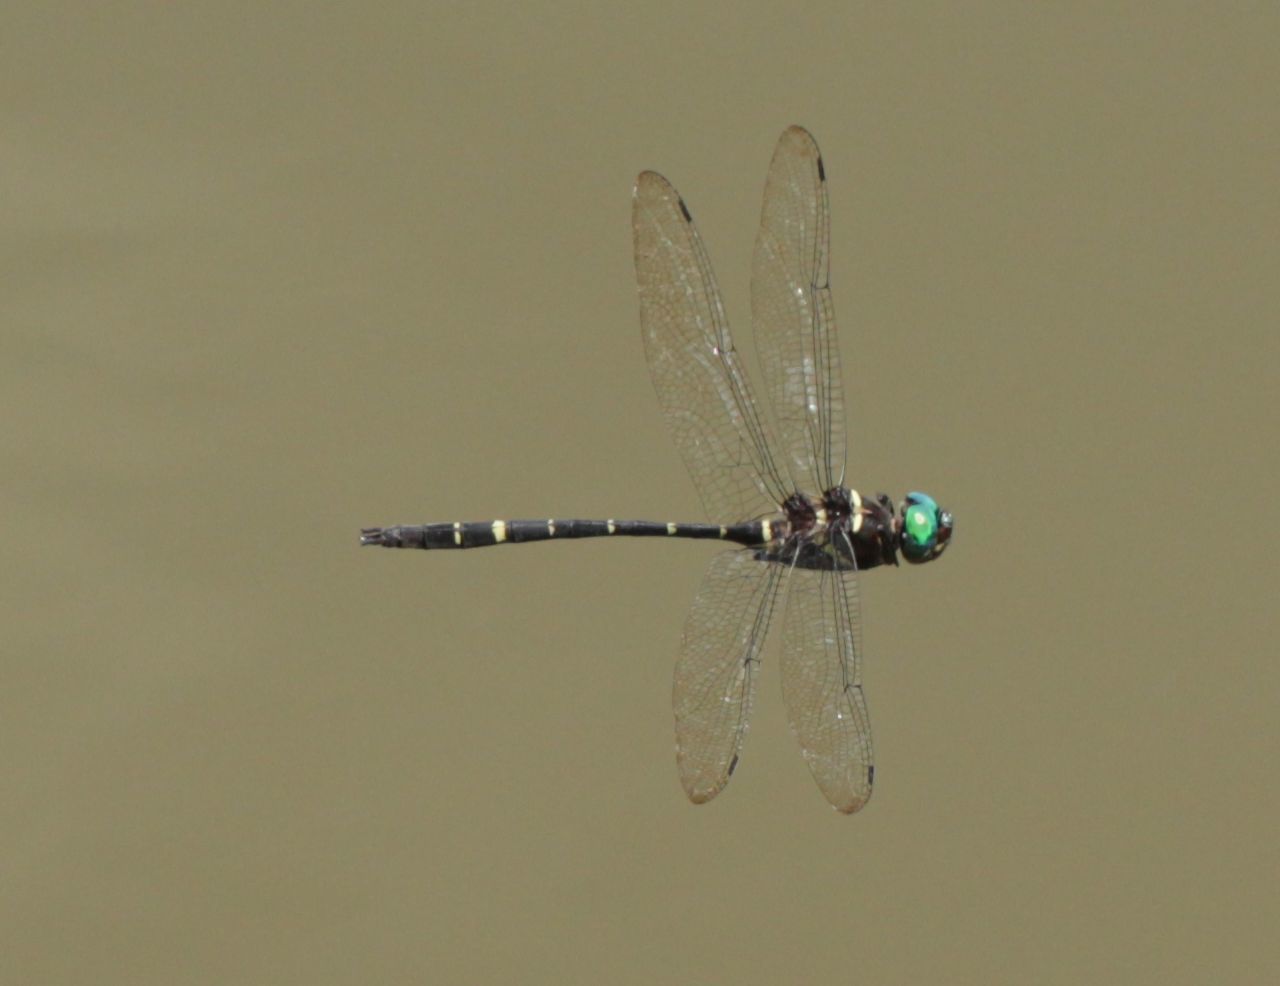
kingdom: Animalia
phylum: Arthropoda
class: Insecta
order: Odonata
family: Macromiidae
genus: Macromia
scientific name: Macromia taeniolata
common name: Royal river cruiser
